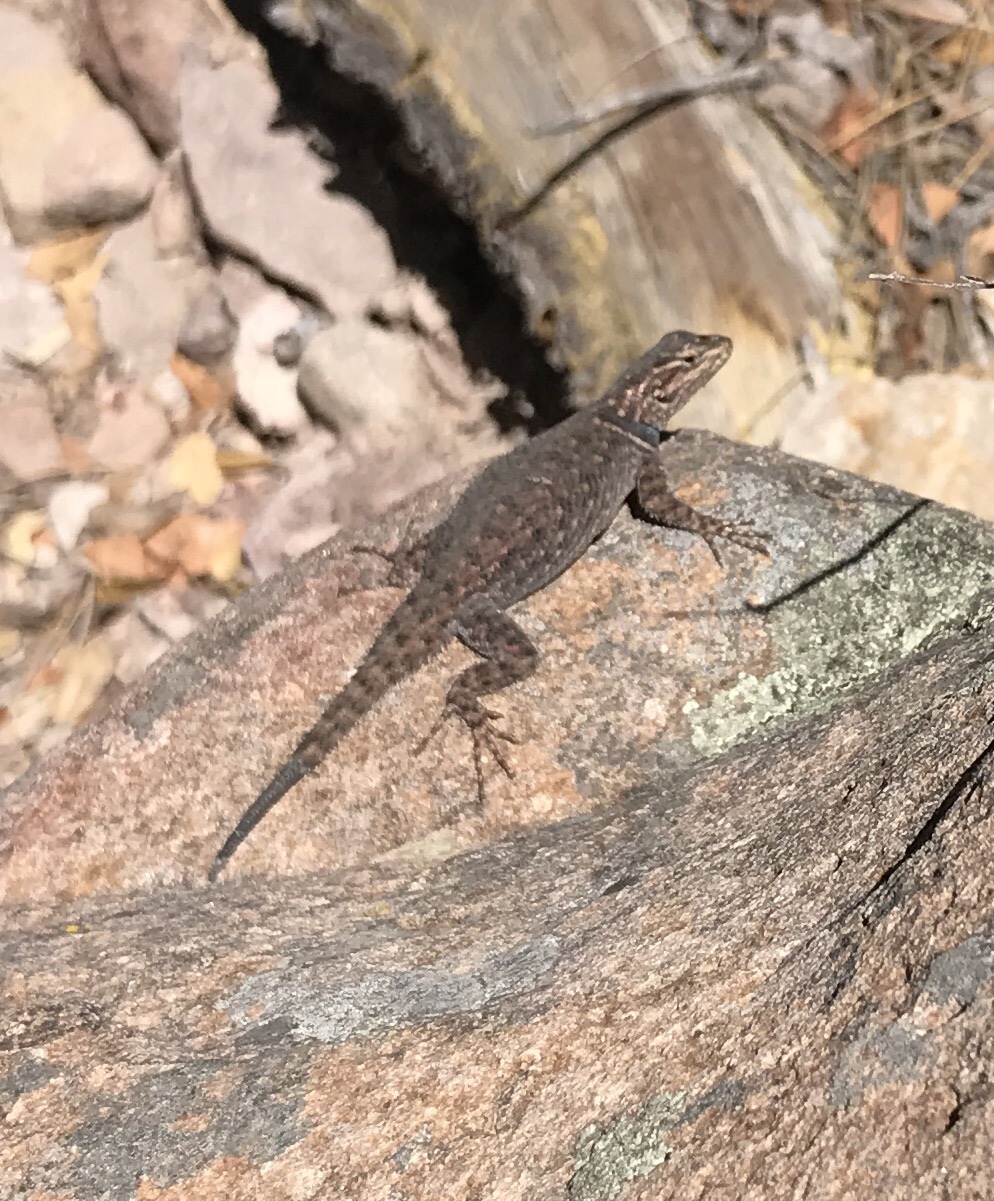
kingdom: Animalia
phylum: Chordata
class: Squamata
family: Phrynosomatidae
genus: Sceloporus
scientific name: Sceloporus jarrovii
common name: Yarrow's spiny lizard
